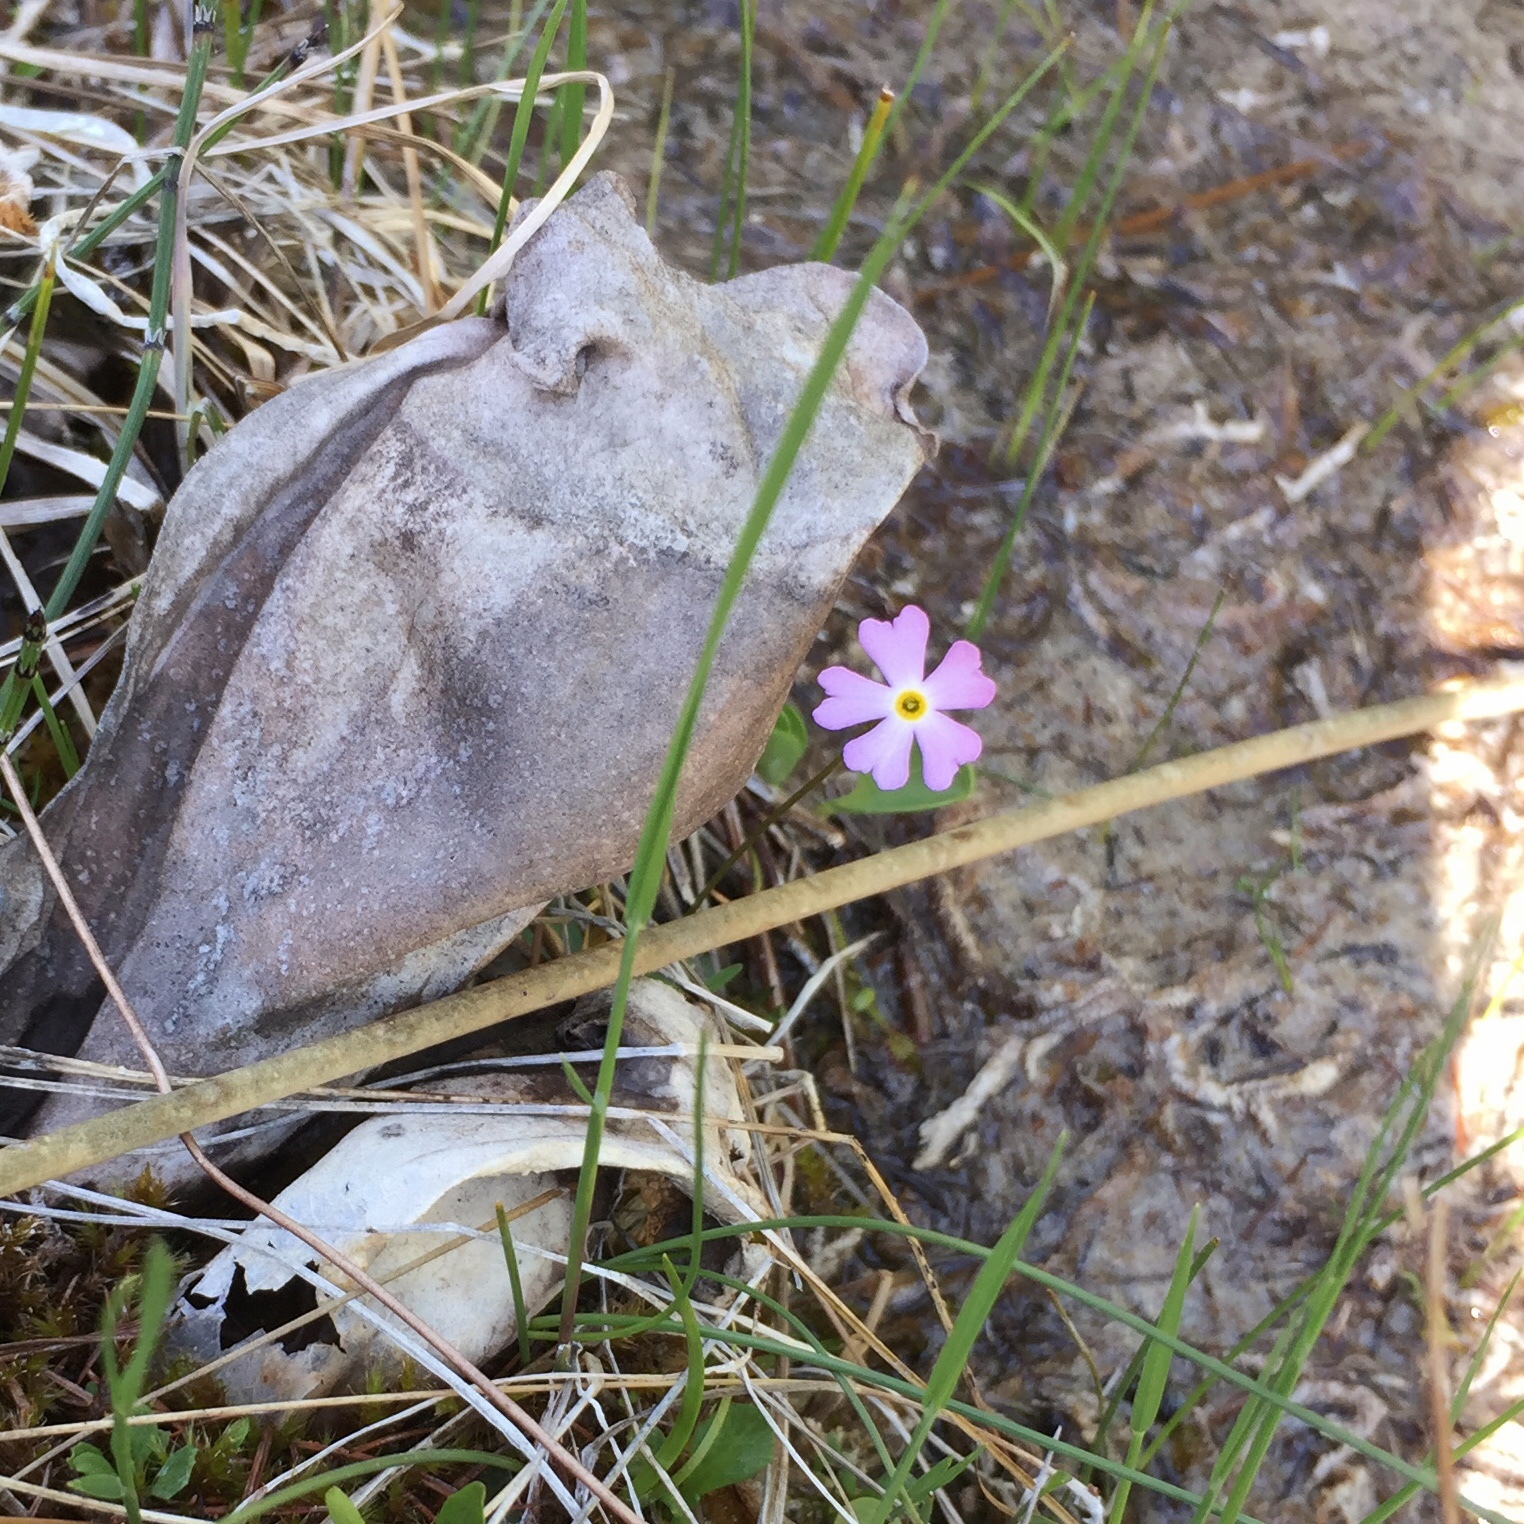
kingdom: Plantae
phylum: Tracheophyta
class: Magnoliopsida
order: Ericales
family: Primulaceae
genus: Primula
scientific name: Primula mistassinica
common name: Bird's-eye primrose
